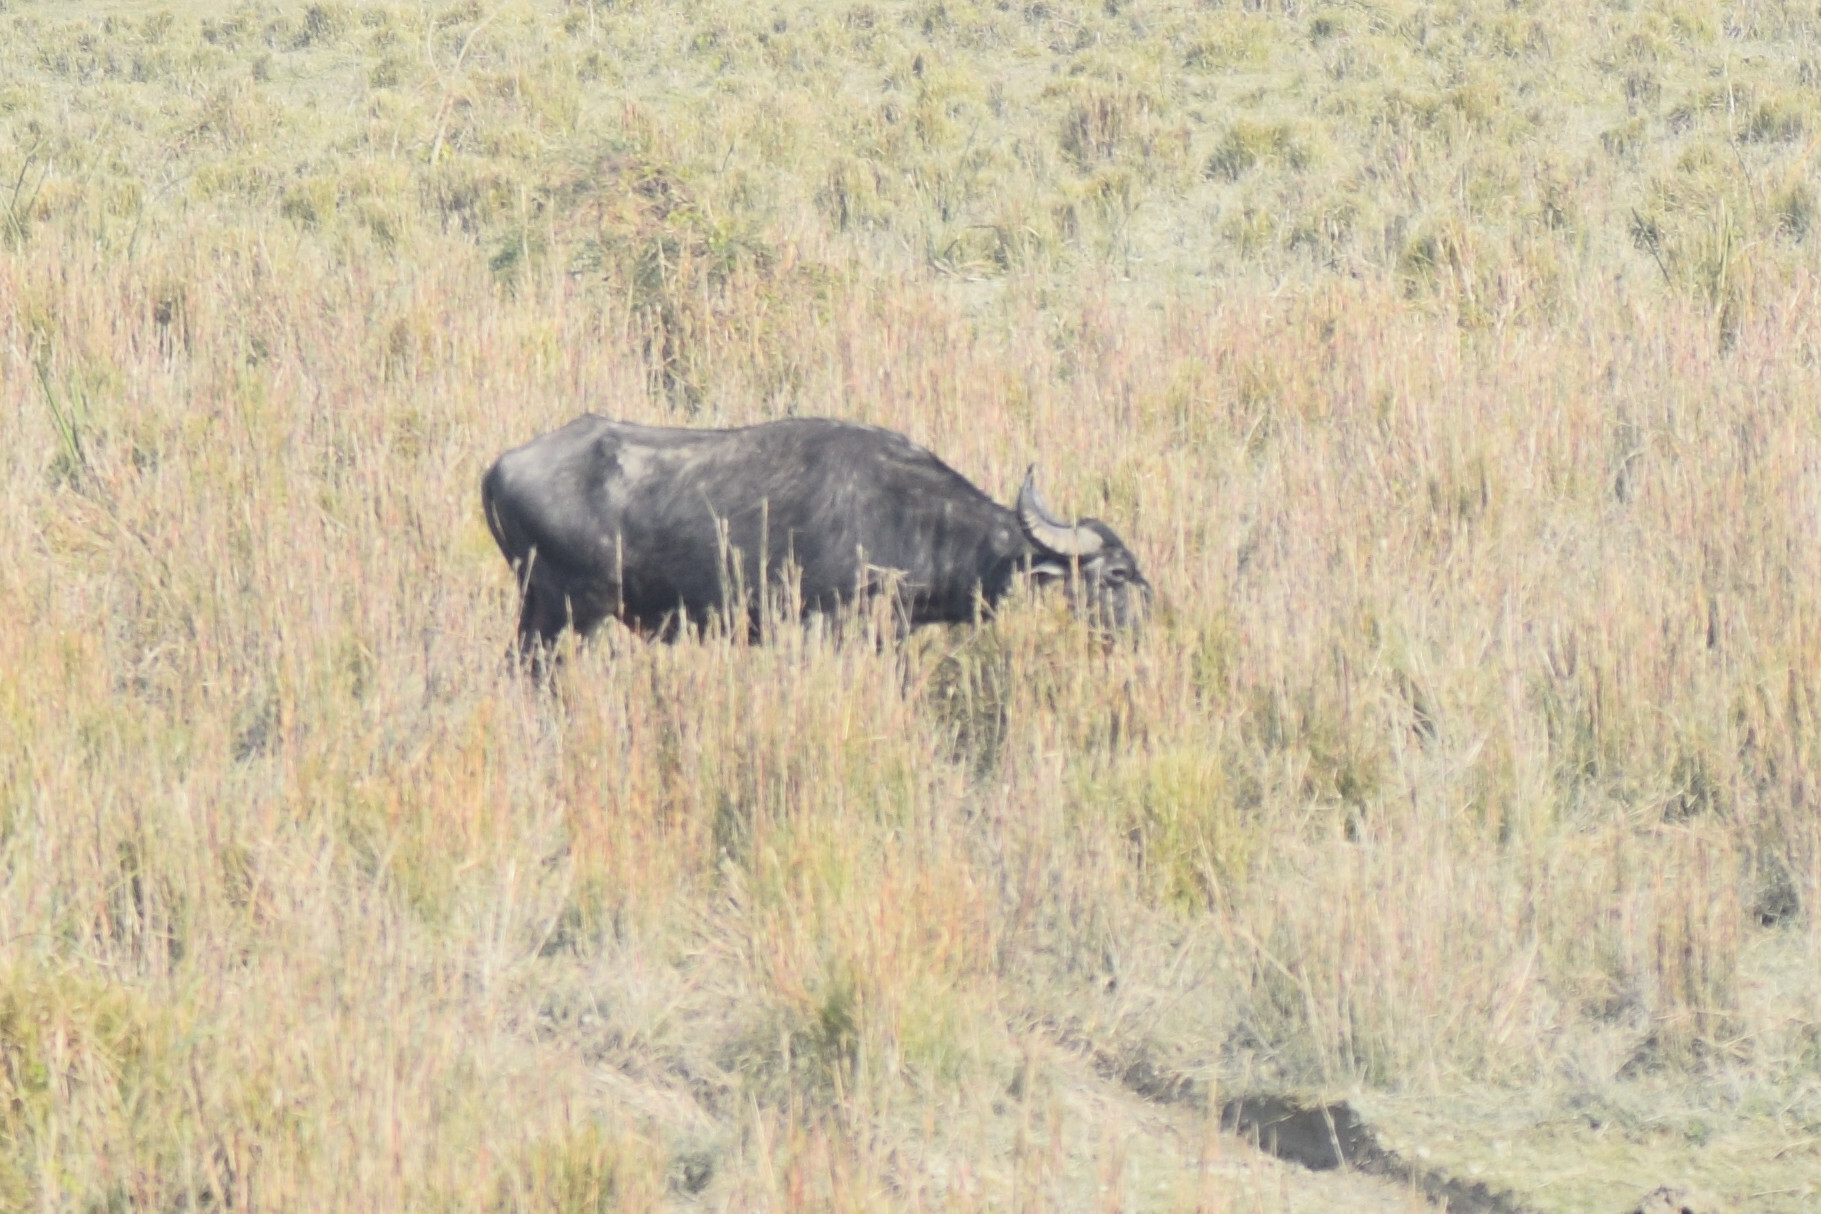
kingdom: Animalia
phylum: Chordata
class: Mammalia
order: Artiodactyla
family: Bovidae
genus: Bubalus
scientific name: Bubalus bubalis
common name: Water buffalo
